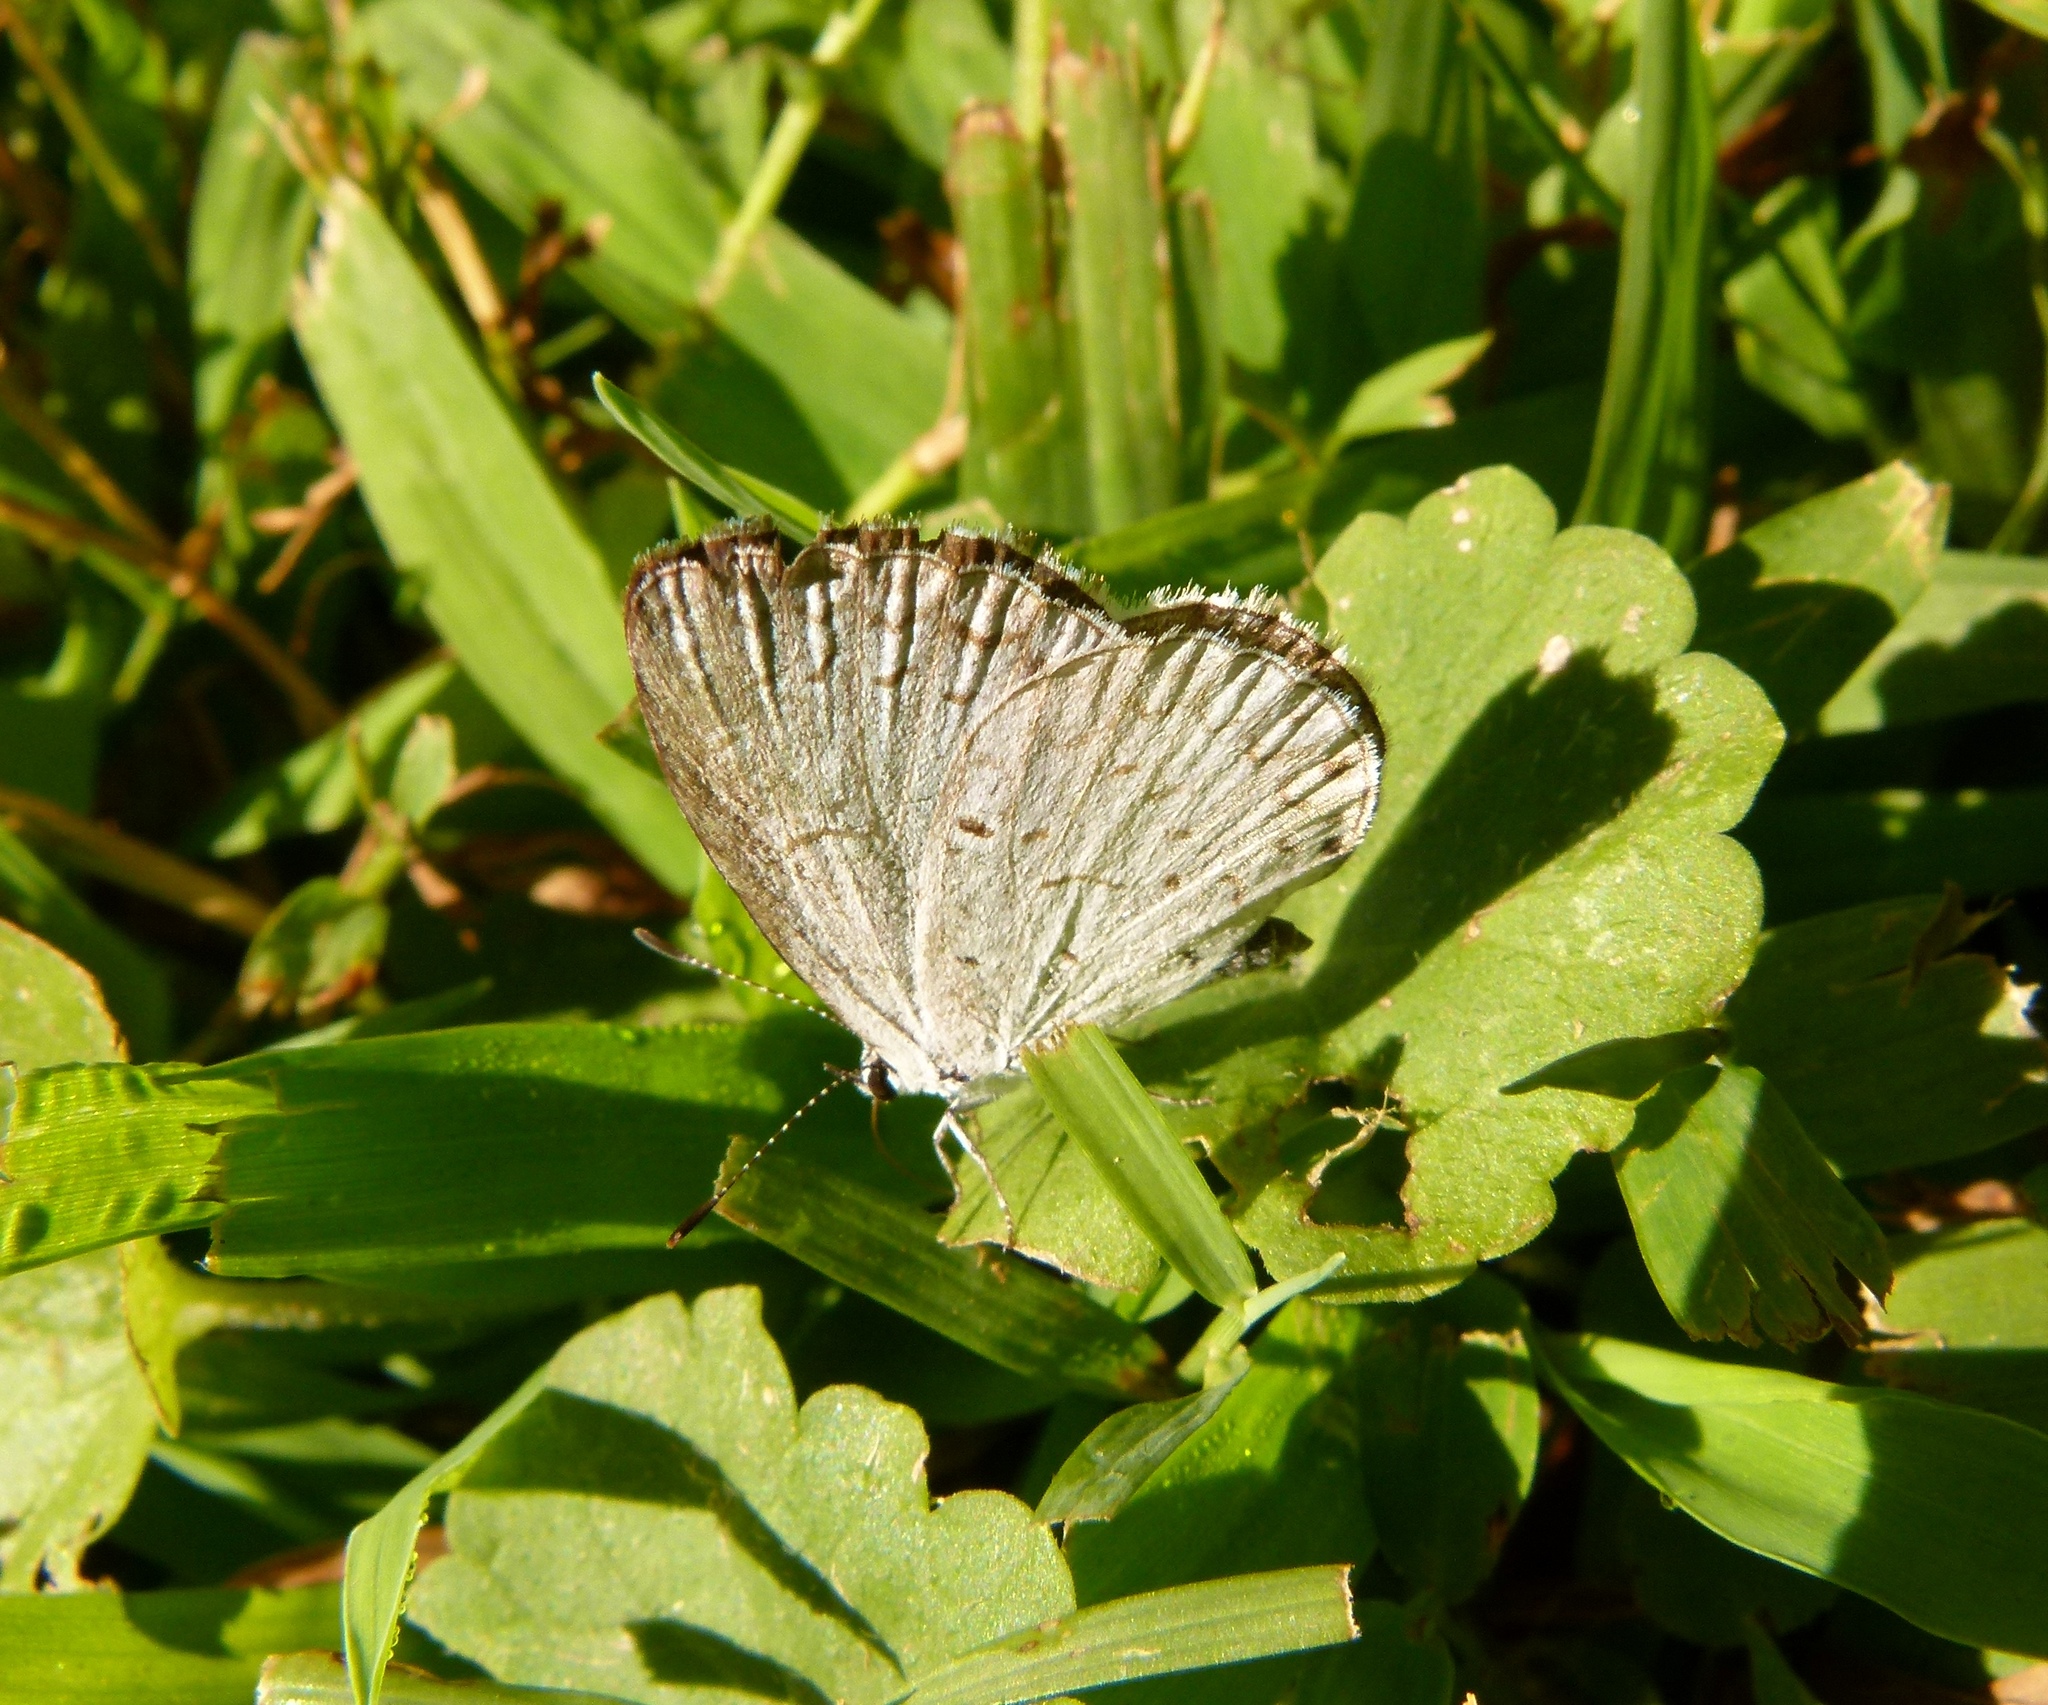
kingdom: Animalia
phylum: Arthropoda
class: Insecta
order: Lepidoptera
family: Lycaenidae
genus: Cyaniris
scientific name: Cyaniris neglecta
